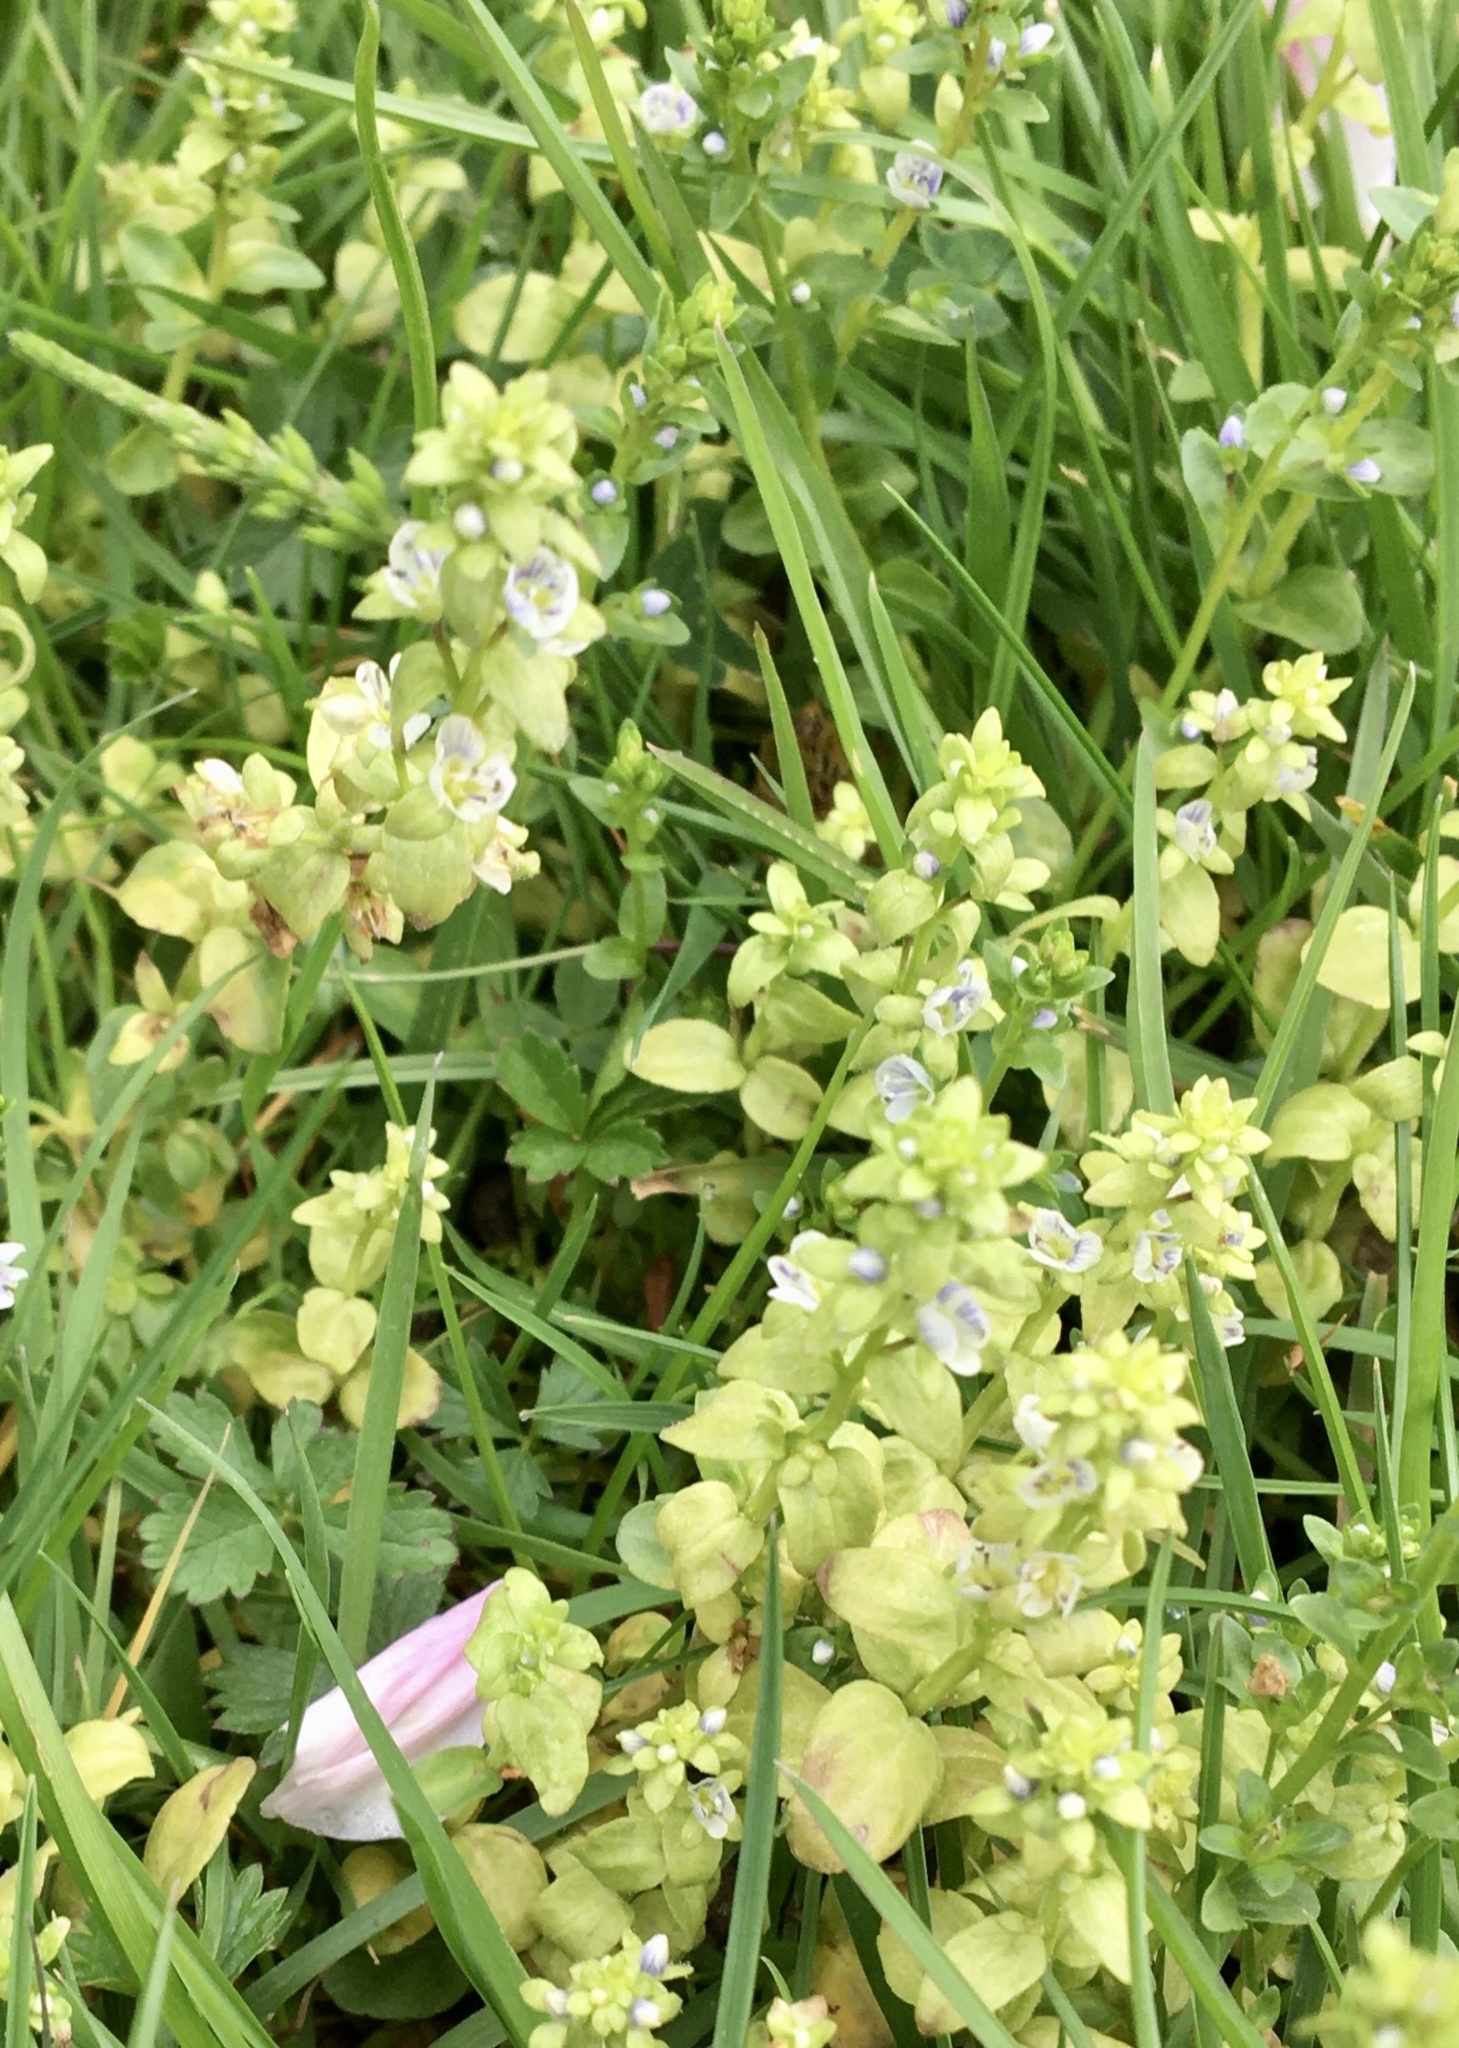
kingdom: Plantae
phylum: Tracheophyta
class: Magnoliopsida
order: Lamiales
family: Plantaginaceae
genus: Veronica
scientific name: Veronica serpyllifolia
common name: Thyme-leaved speedwell
